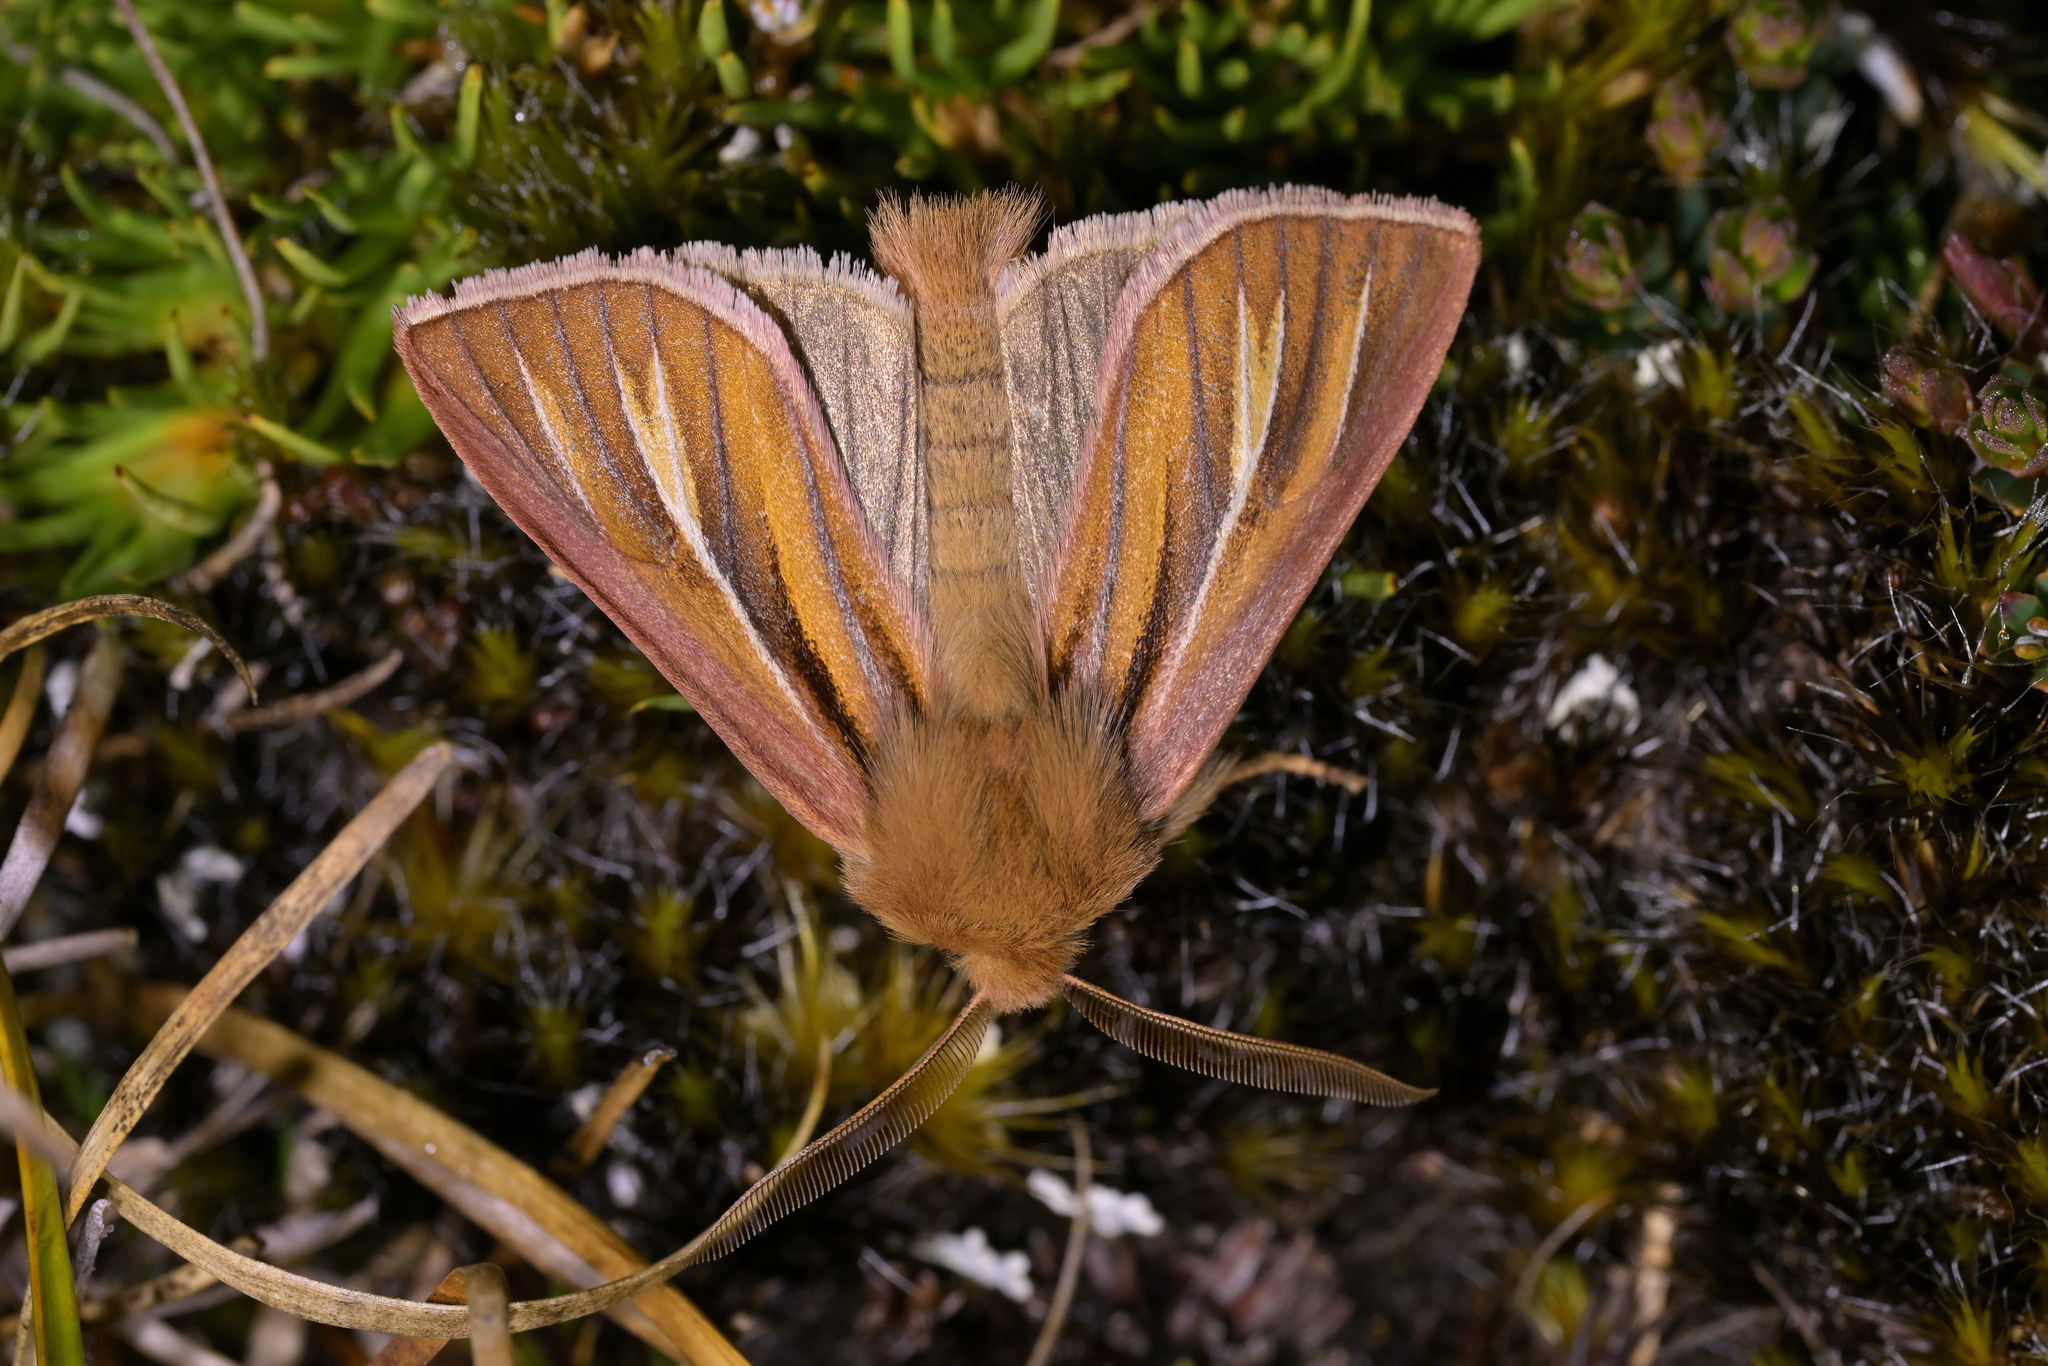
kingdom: Animalia
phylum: Arthropoda
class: Insecta
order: Lepidoptera
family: Noctuidae
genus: Ichneutica
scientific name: Ichneutica caraunias
